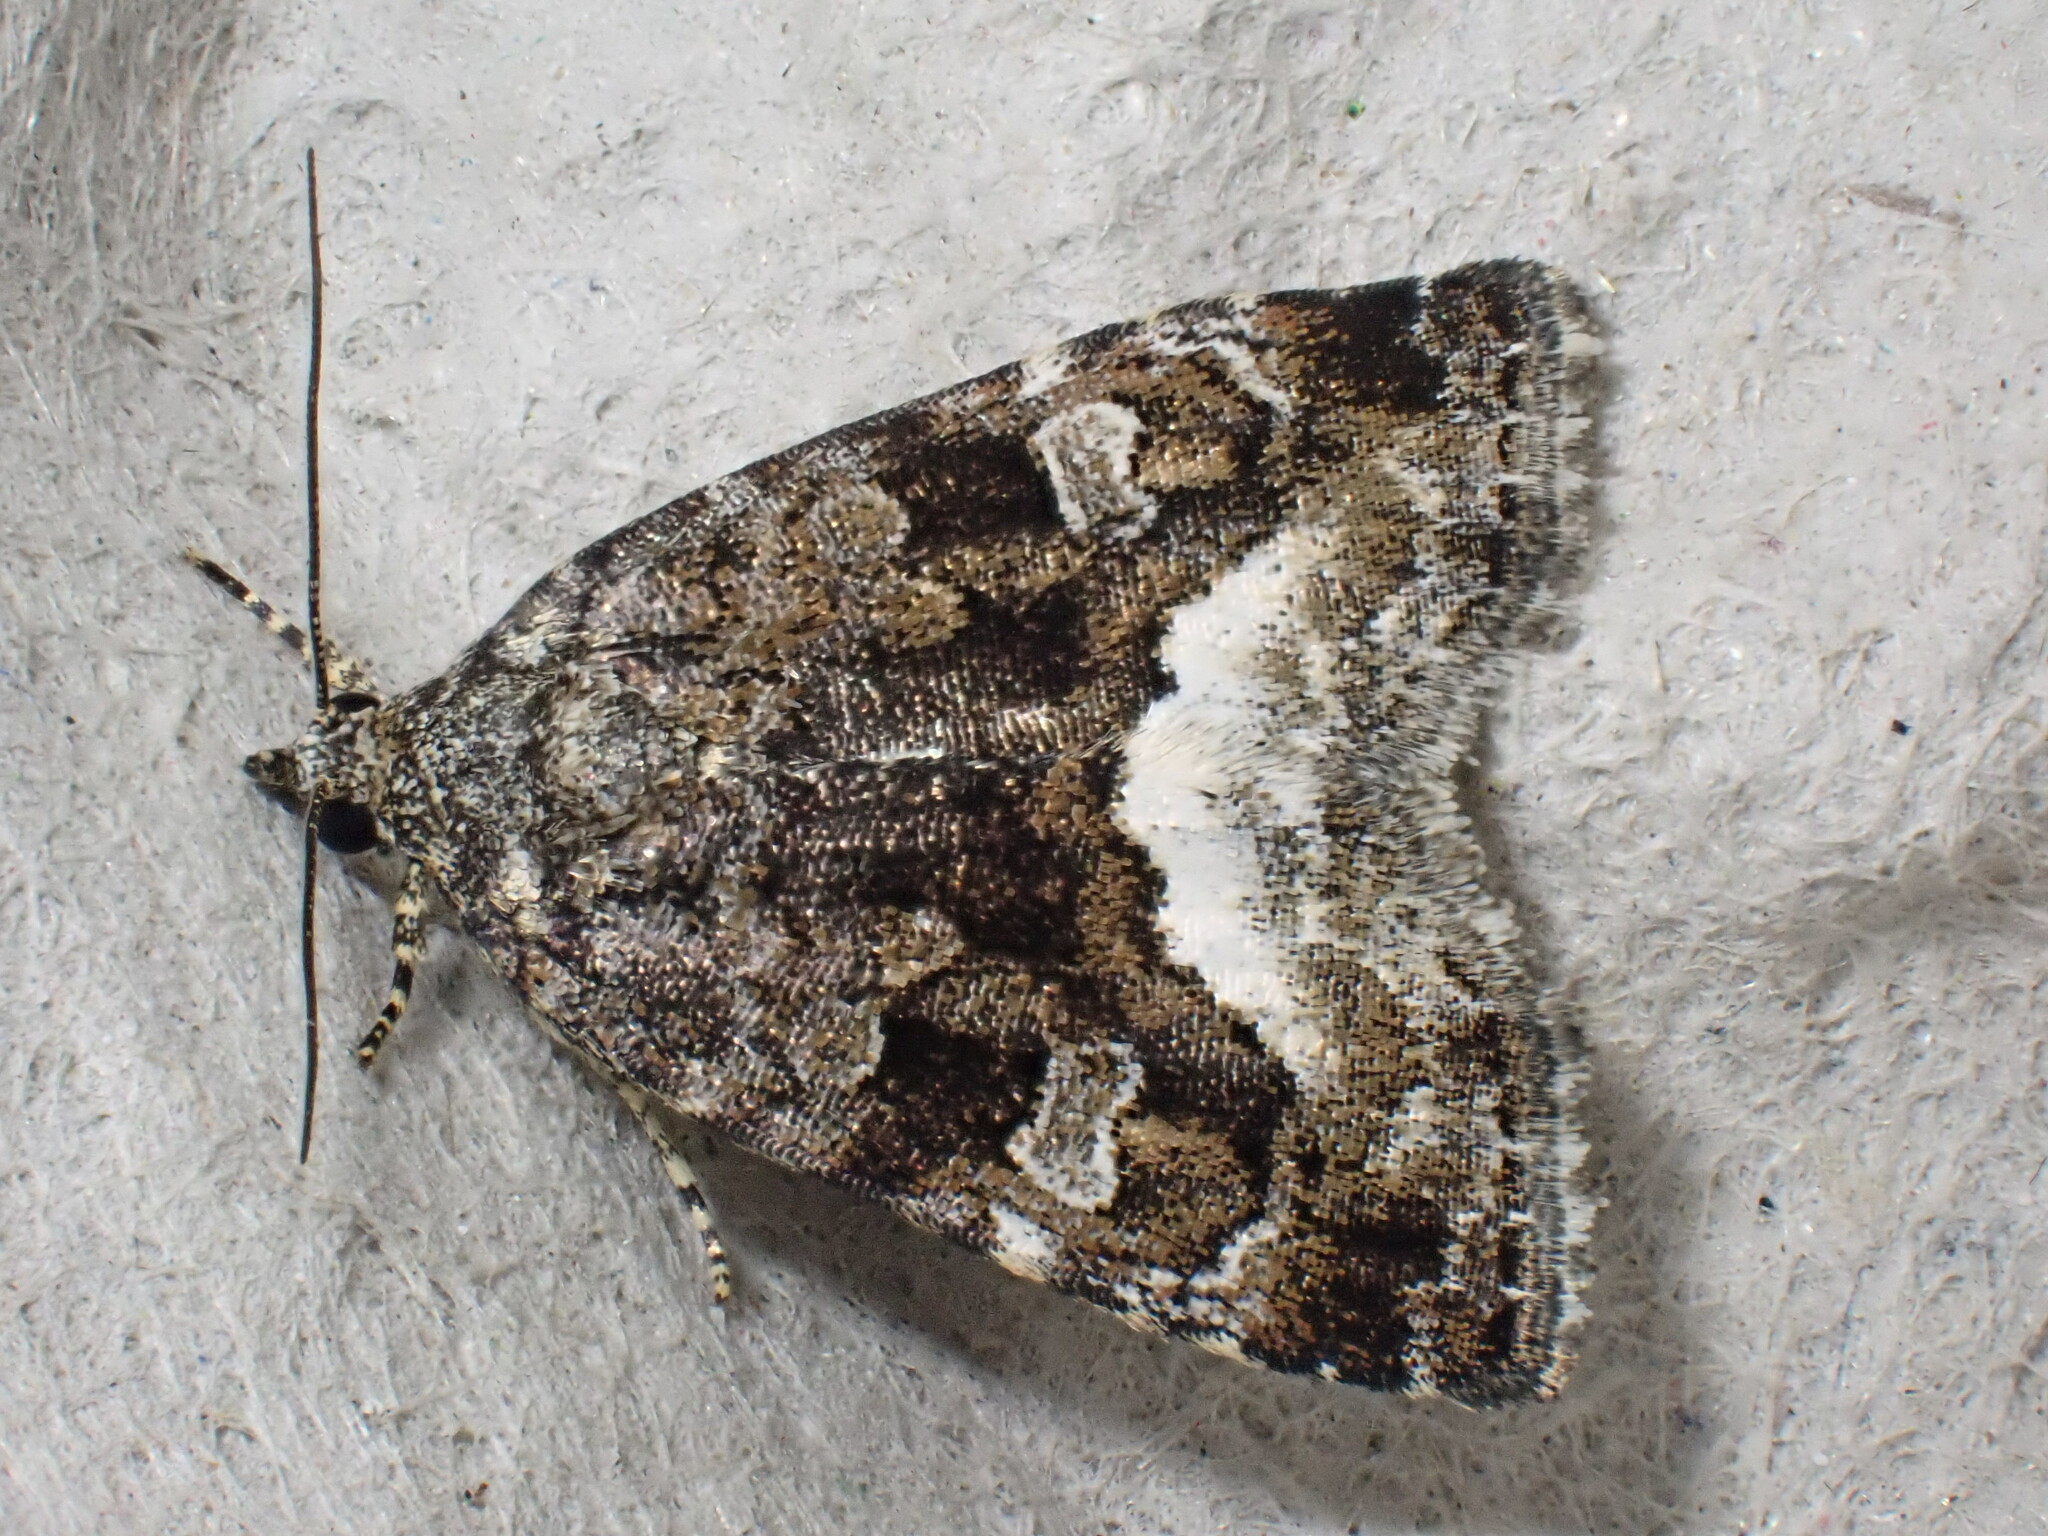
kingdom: Animalia
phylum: Arthropoda
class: Insecta
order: Lepidoptera
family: Noctuidae
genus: Deltote
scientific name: Deltote pygarga
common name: Marbled white spot
